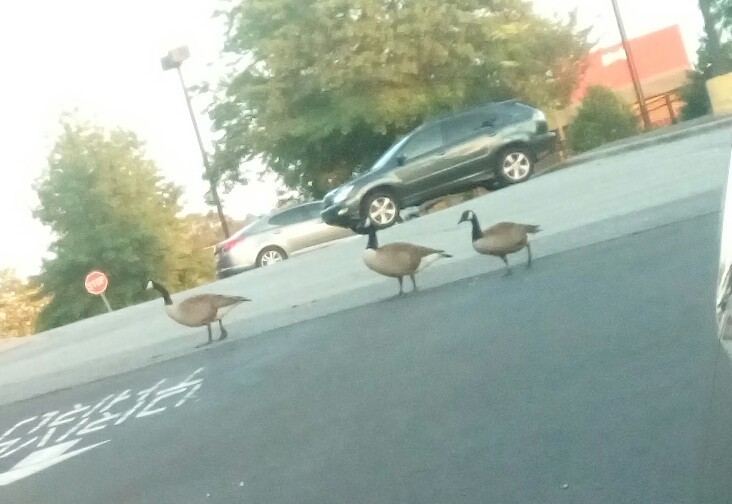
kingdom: Animalia
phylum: Chordata
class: Aves
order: Anseriformes
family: Anatidae
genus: Branta
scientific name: Branta canadensis
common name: Canada goose
